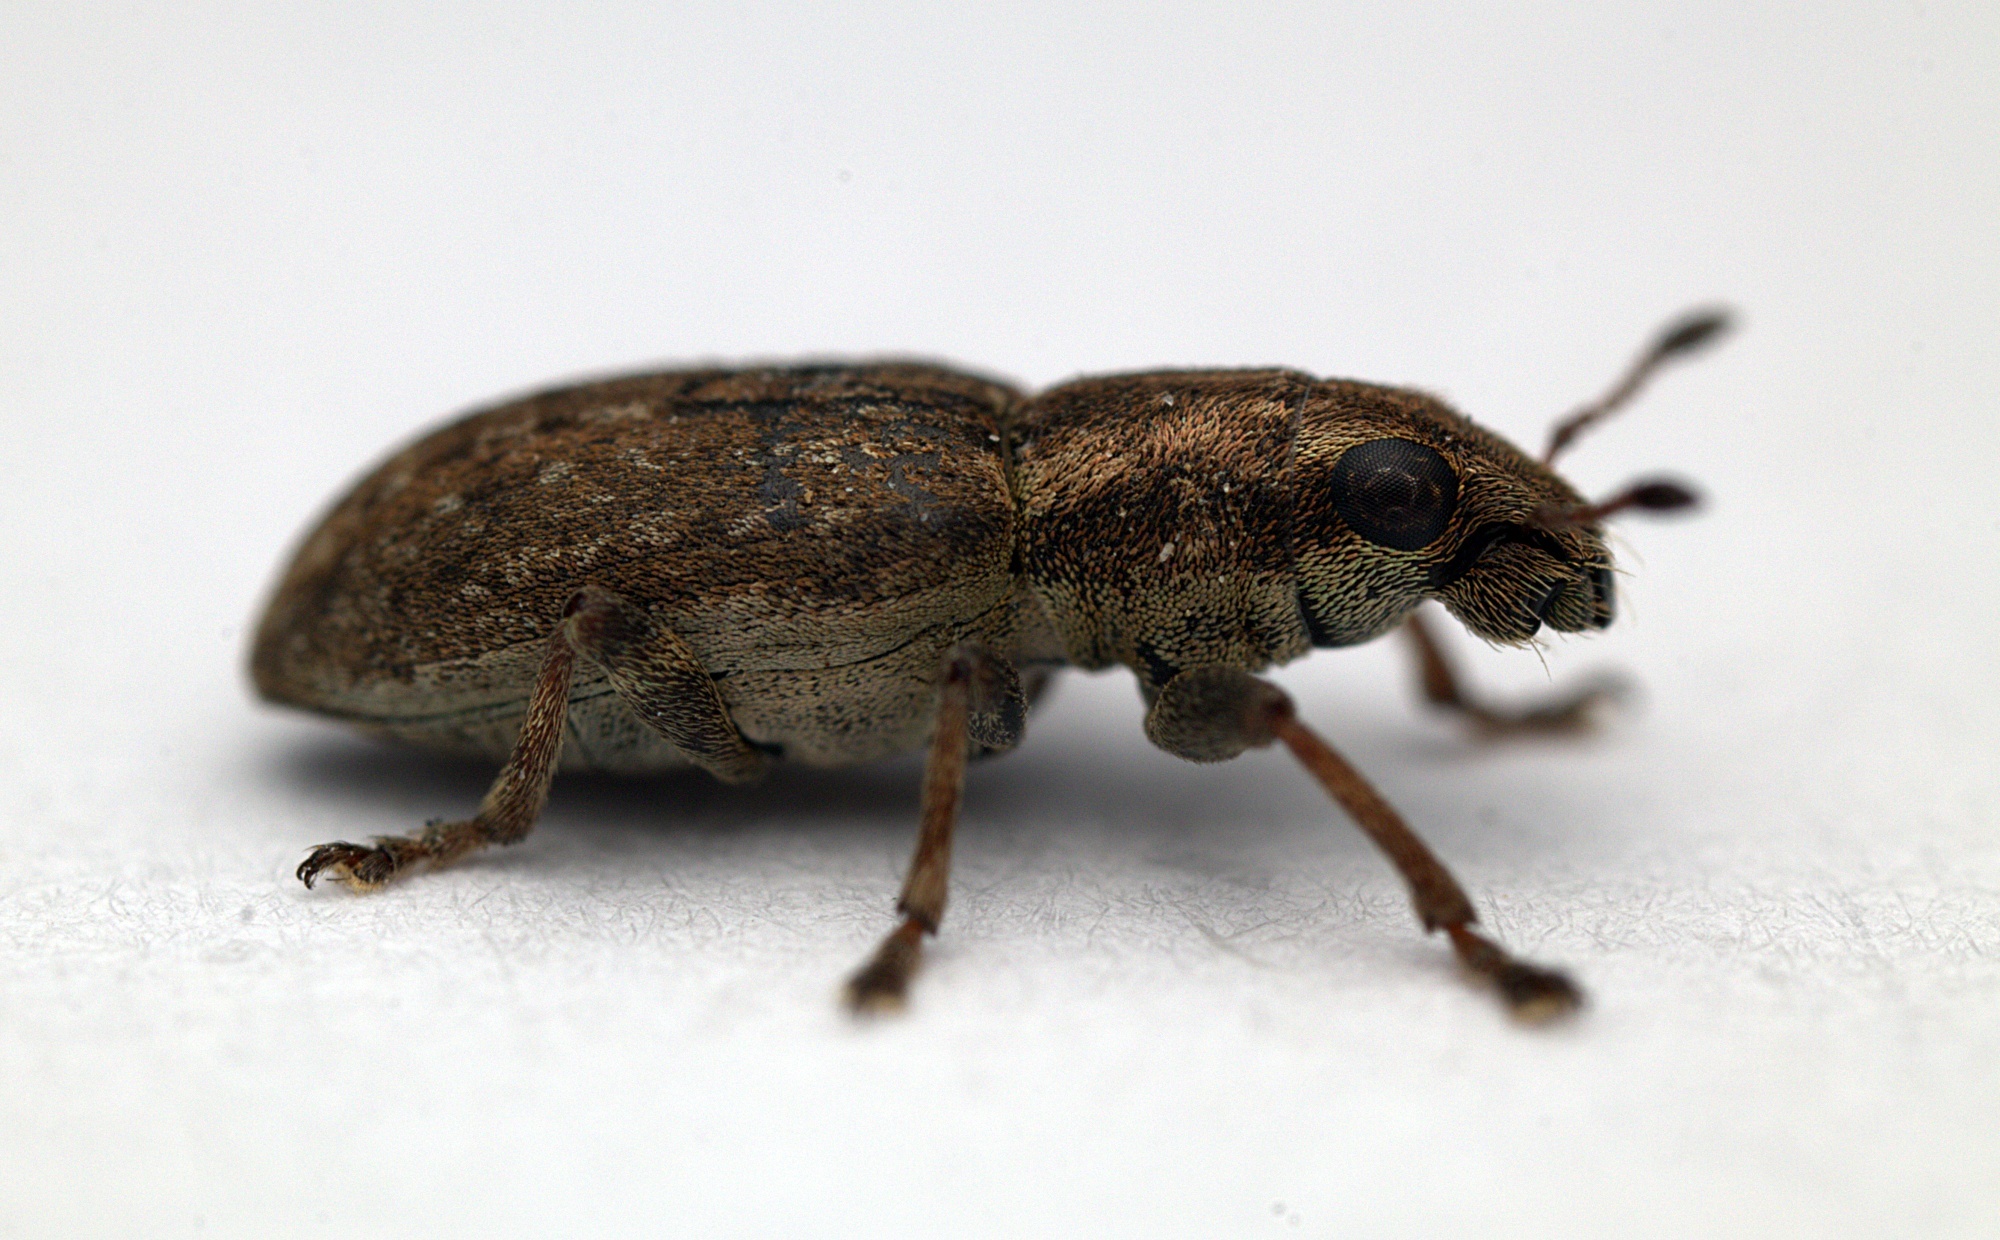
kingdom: Animalia
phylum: Arthropoda
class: Insecta
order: Coleoptera
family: Curculionidae
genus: Sitona
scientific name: Sitona obsoletus
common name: Weevil
